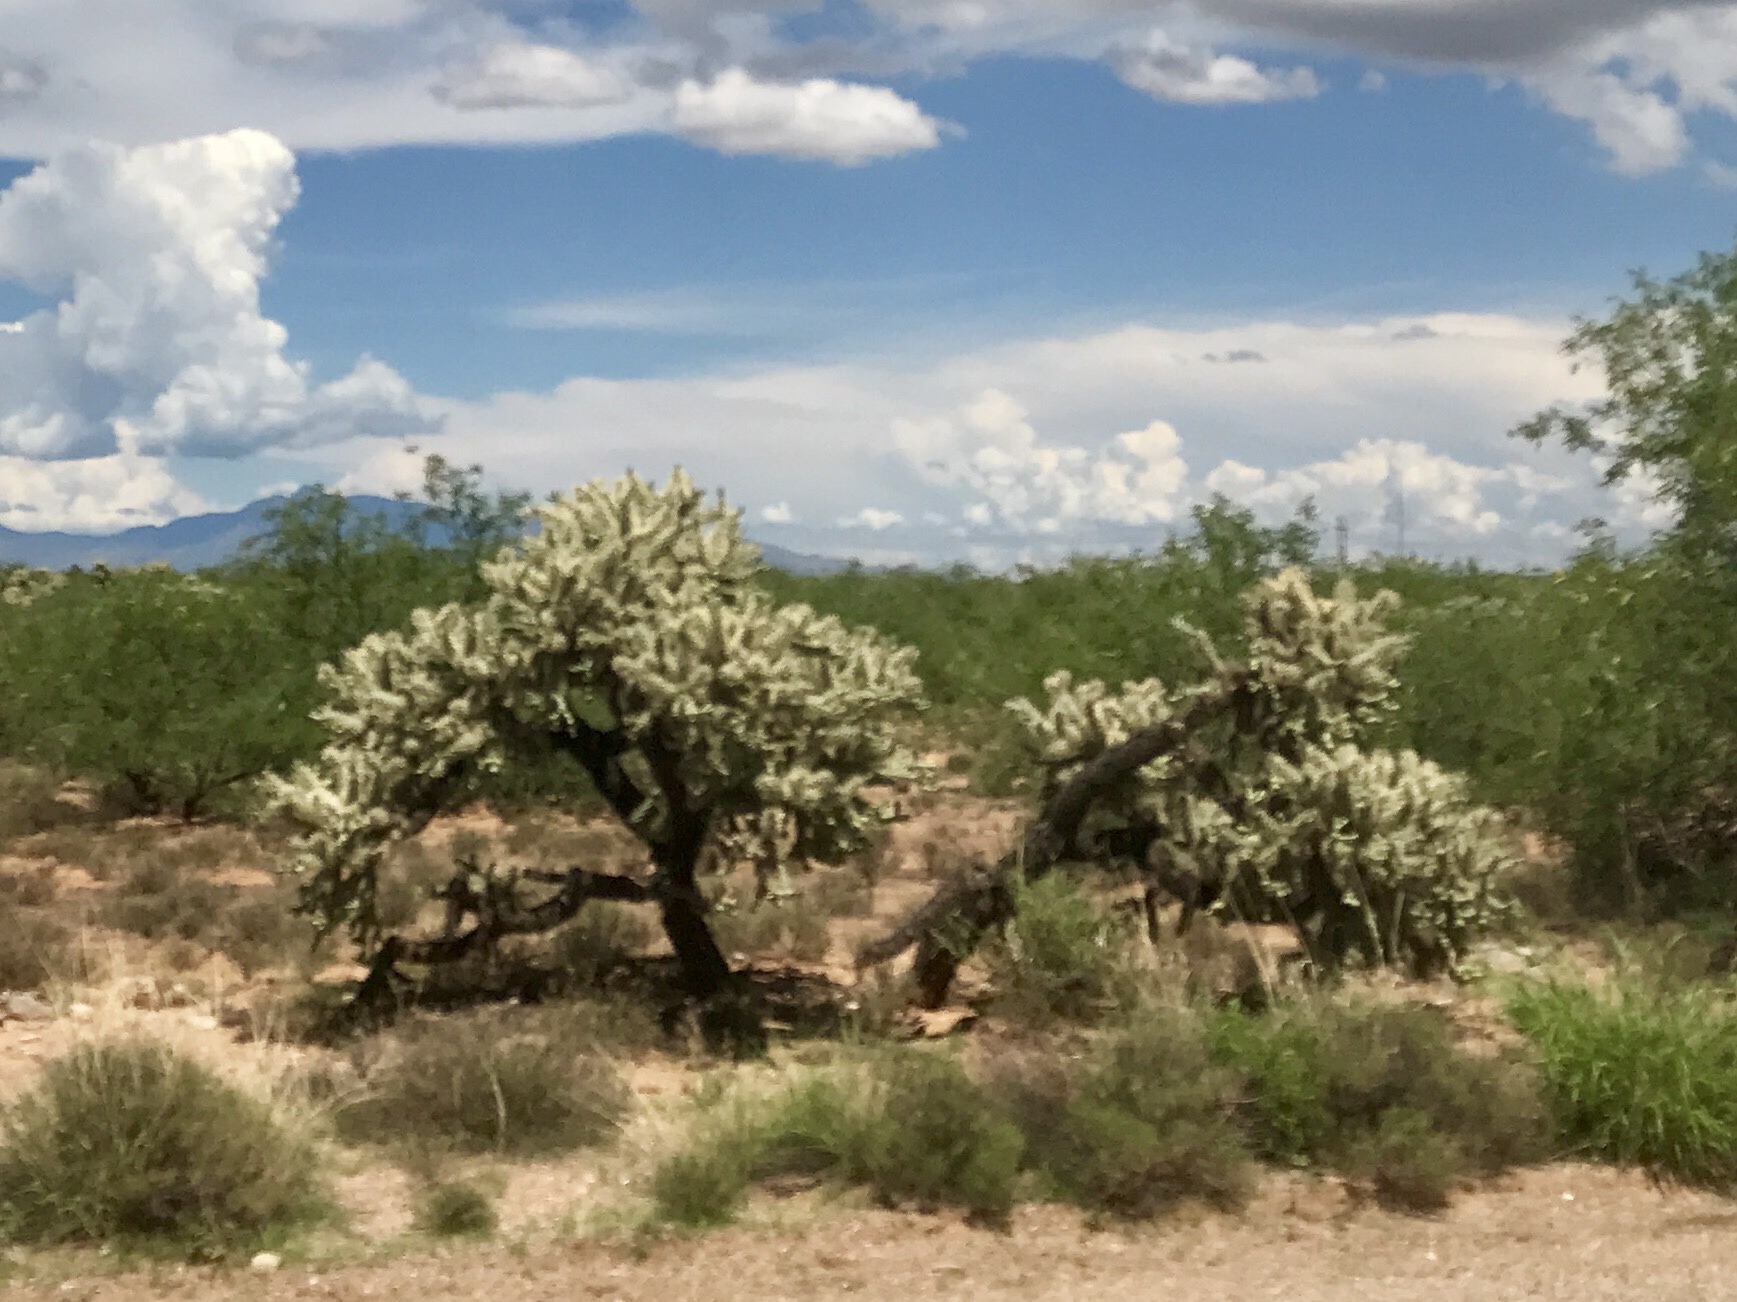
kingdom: Plantae
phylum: Tracheophyta
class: Magnoliopsida
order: Caryophyllales
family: Cactaceae
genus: Cylindropuntia
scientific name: Cylindropuntia fulgida
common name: Jumping cholla
